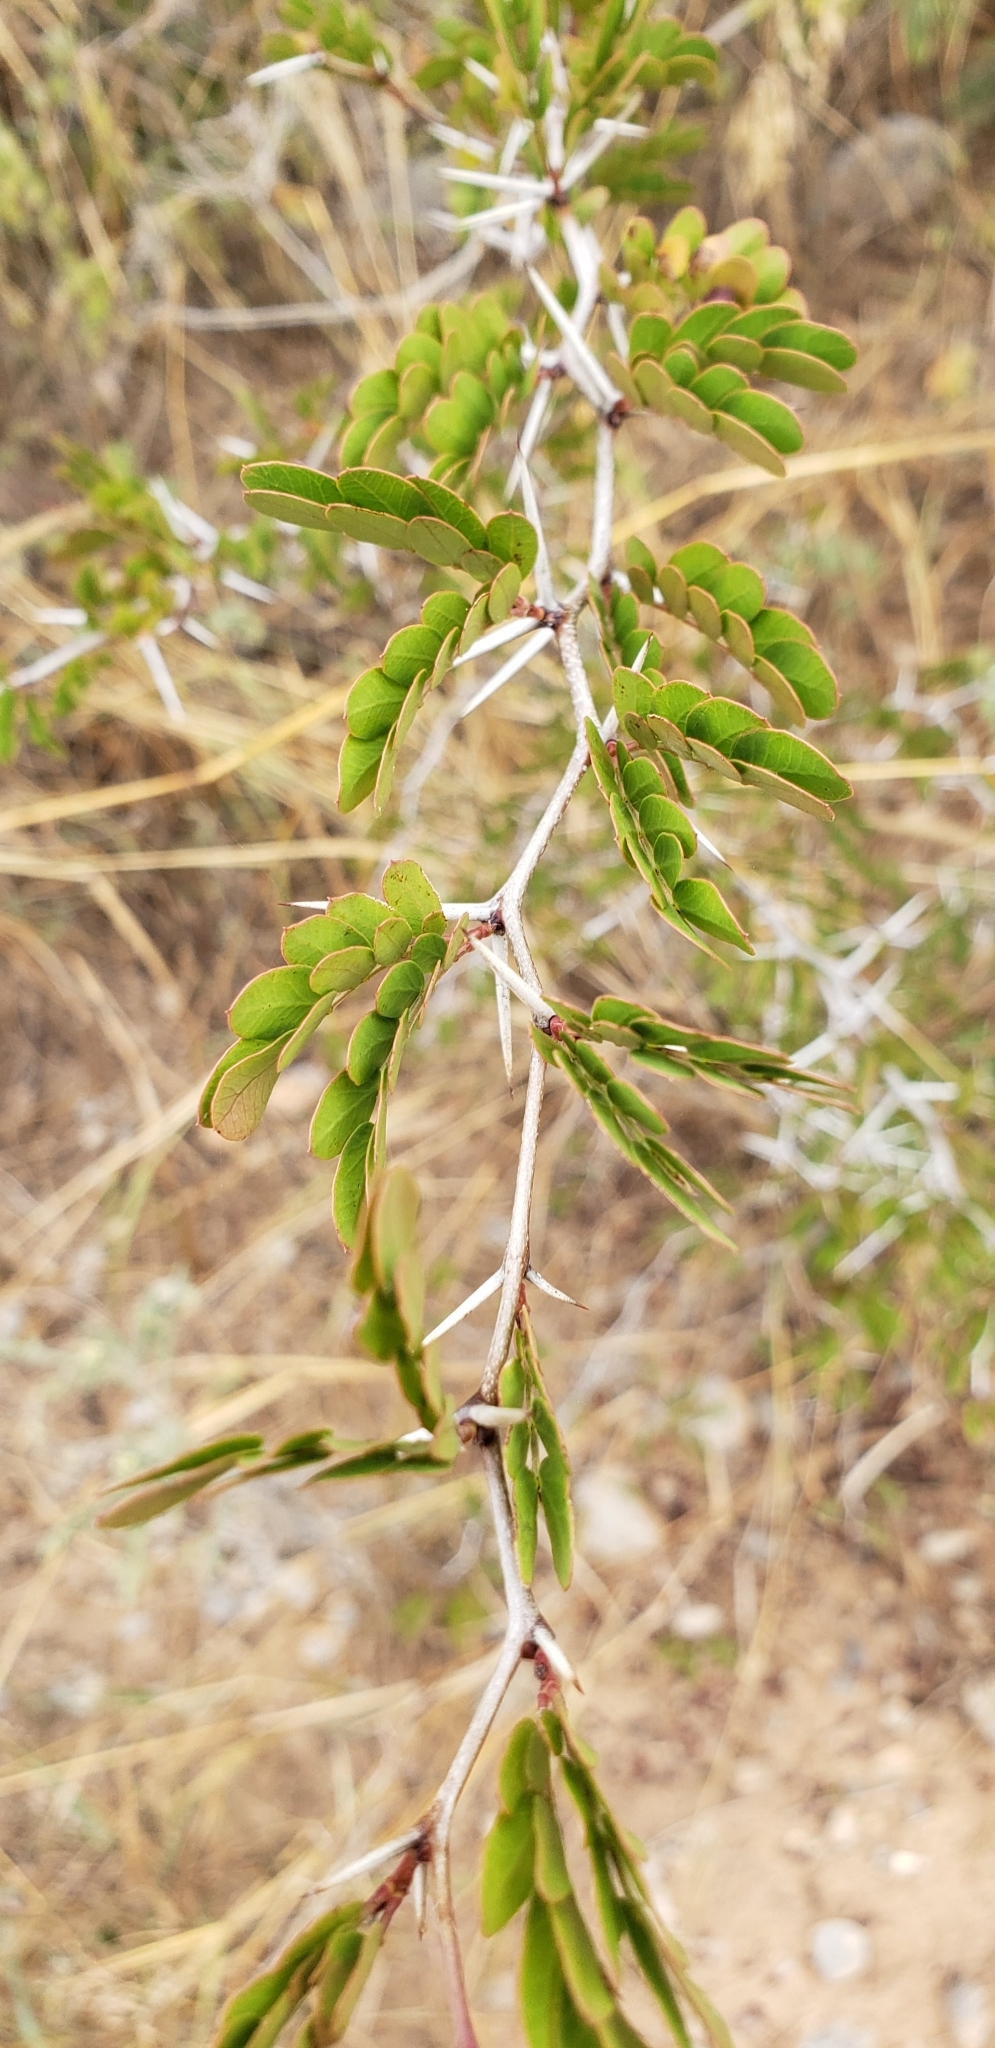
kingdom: Plantae
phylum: Tracheophyta
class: Magnoliopsida
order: Fabales
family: Fabaceae
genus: Vachellia
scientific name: Vachellia rigidula
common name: Blackbrush
